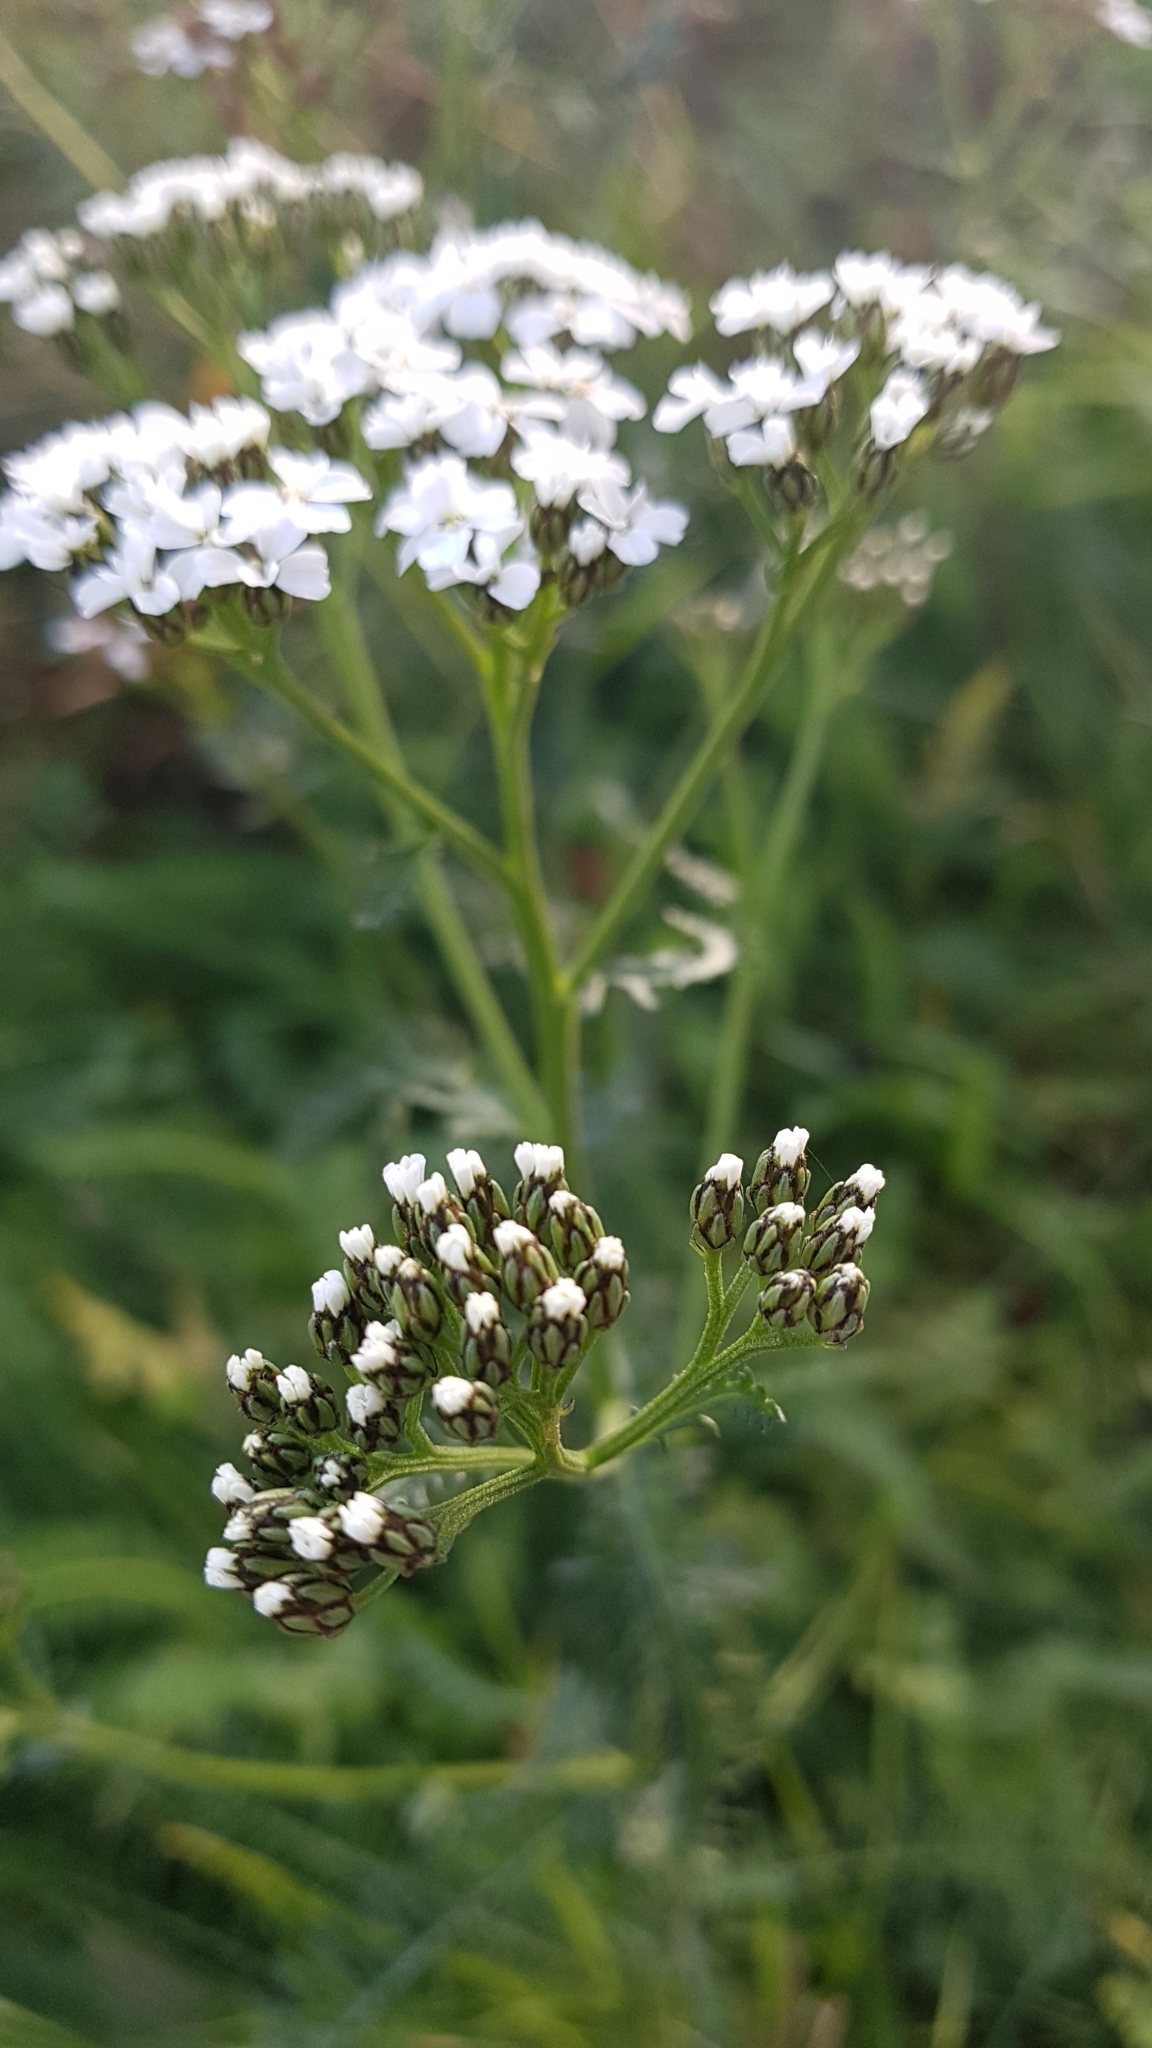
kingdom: Plantae
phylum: Tracheophyta
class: Magnoliopsida
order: Asterales
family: Asteraceae
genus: Achillea
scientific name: Achillea millefolium
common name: Yarrow
